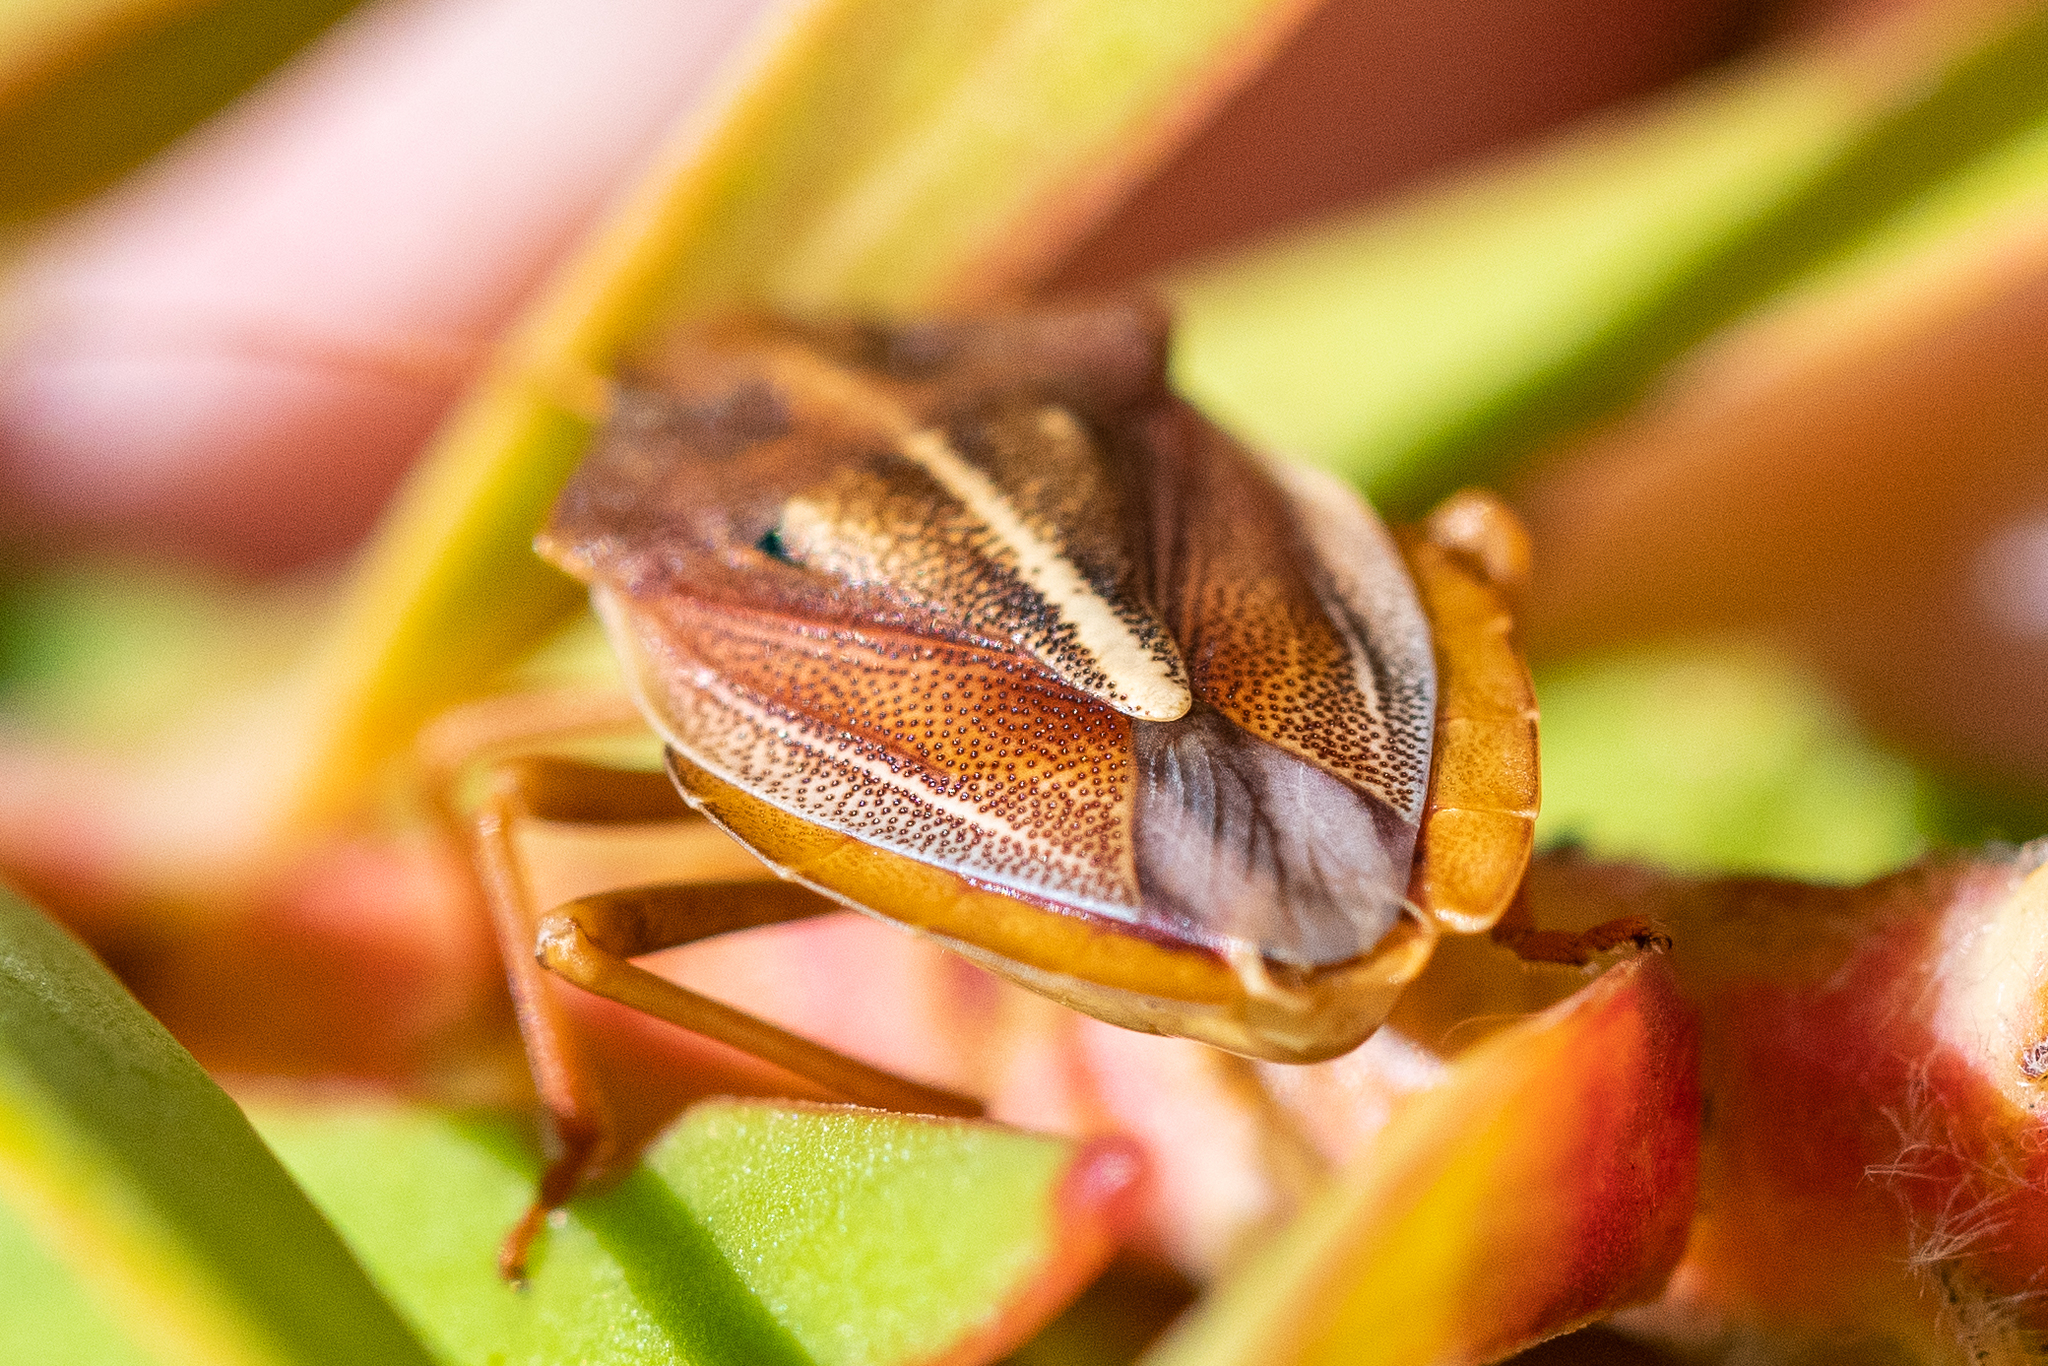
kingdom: Animalia
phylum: Arthropoda
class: Insecta
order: Hemiptera
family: Pentatomidae
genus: Tropicorypha
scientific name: Tropicorypha
